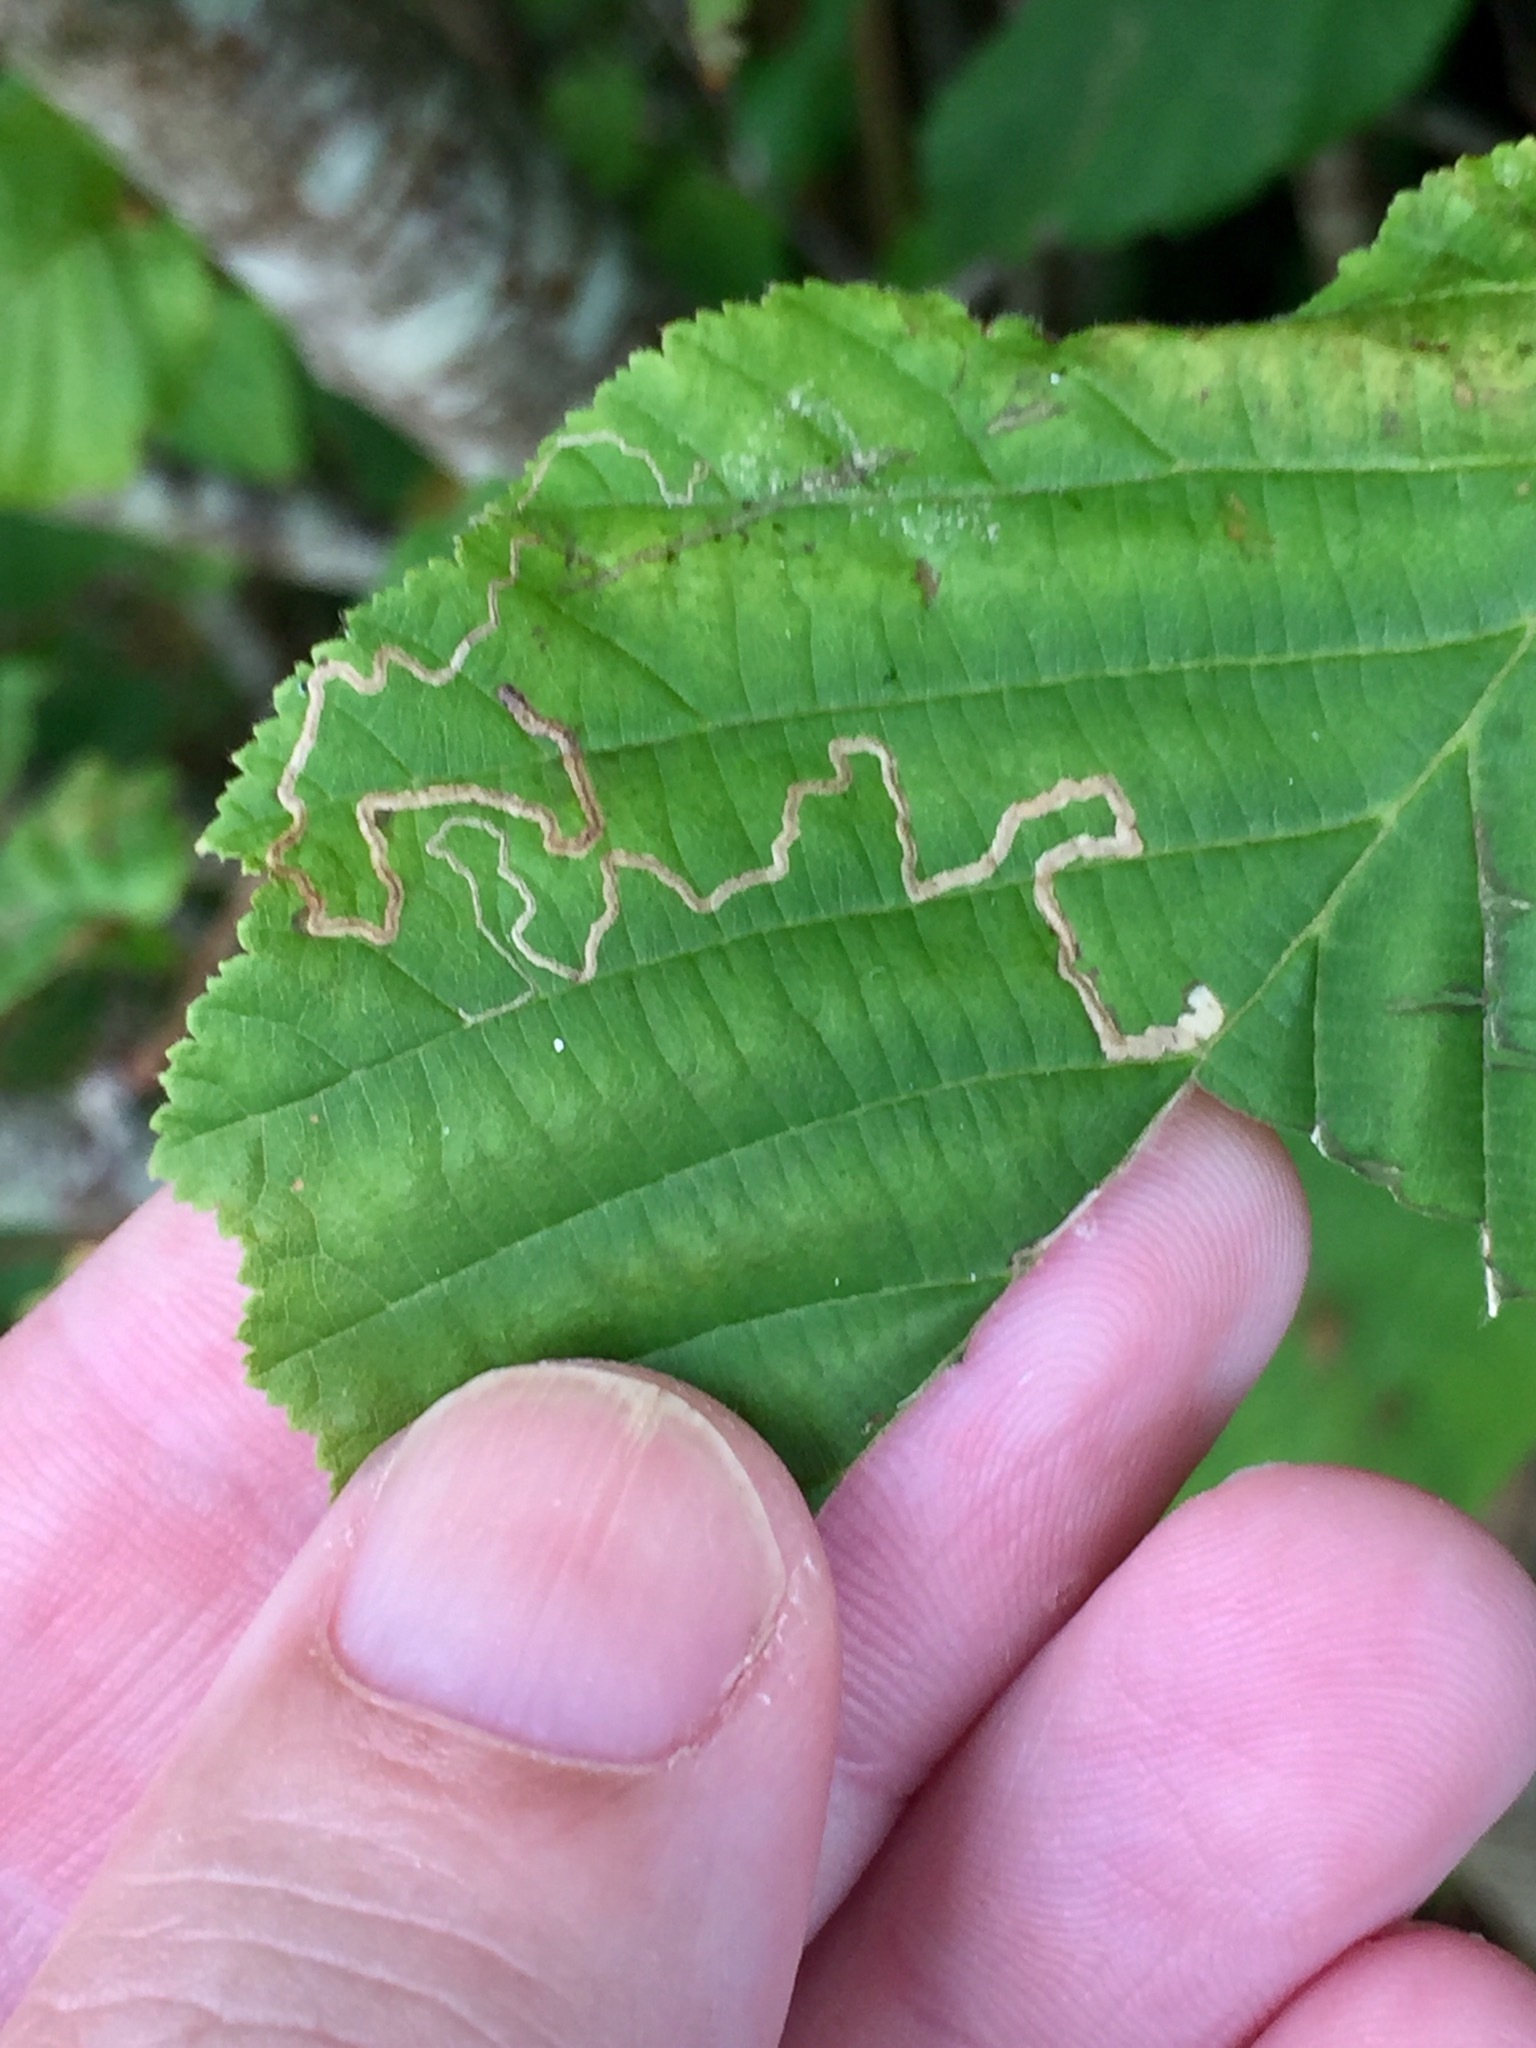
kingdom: Animalia
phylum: Arthropoda
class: Insecta
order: Lepidoptera
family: Nepticulidae
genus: Stigmella
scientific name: Stigmella microtheriella
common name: Nut-tree pigmy
